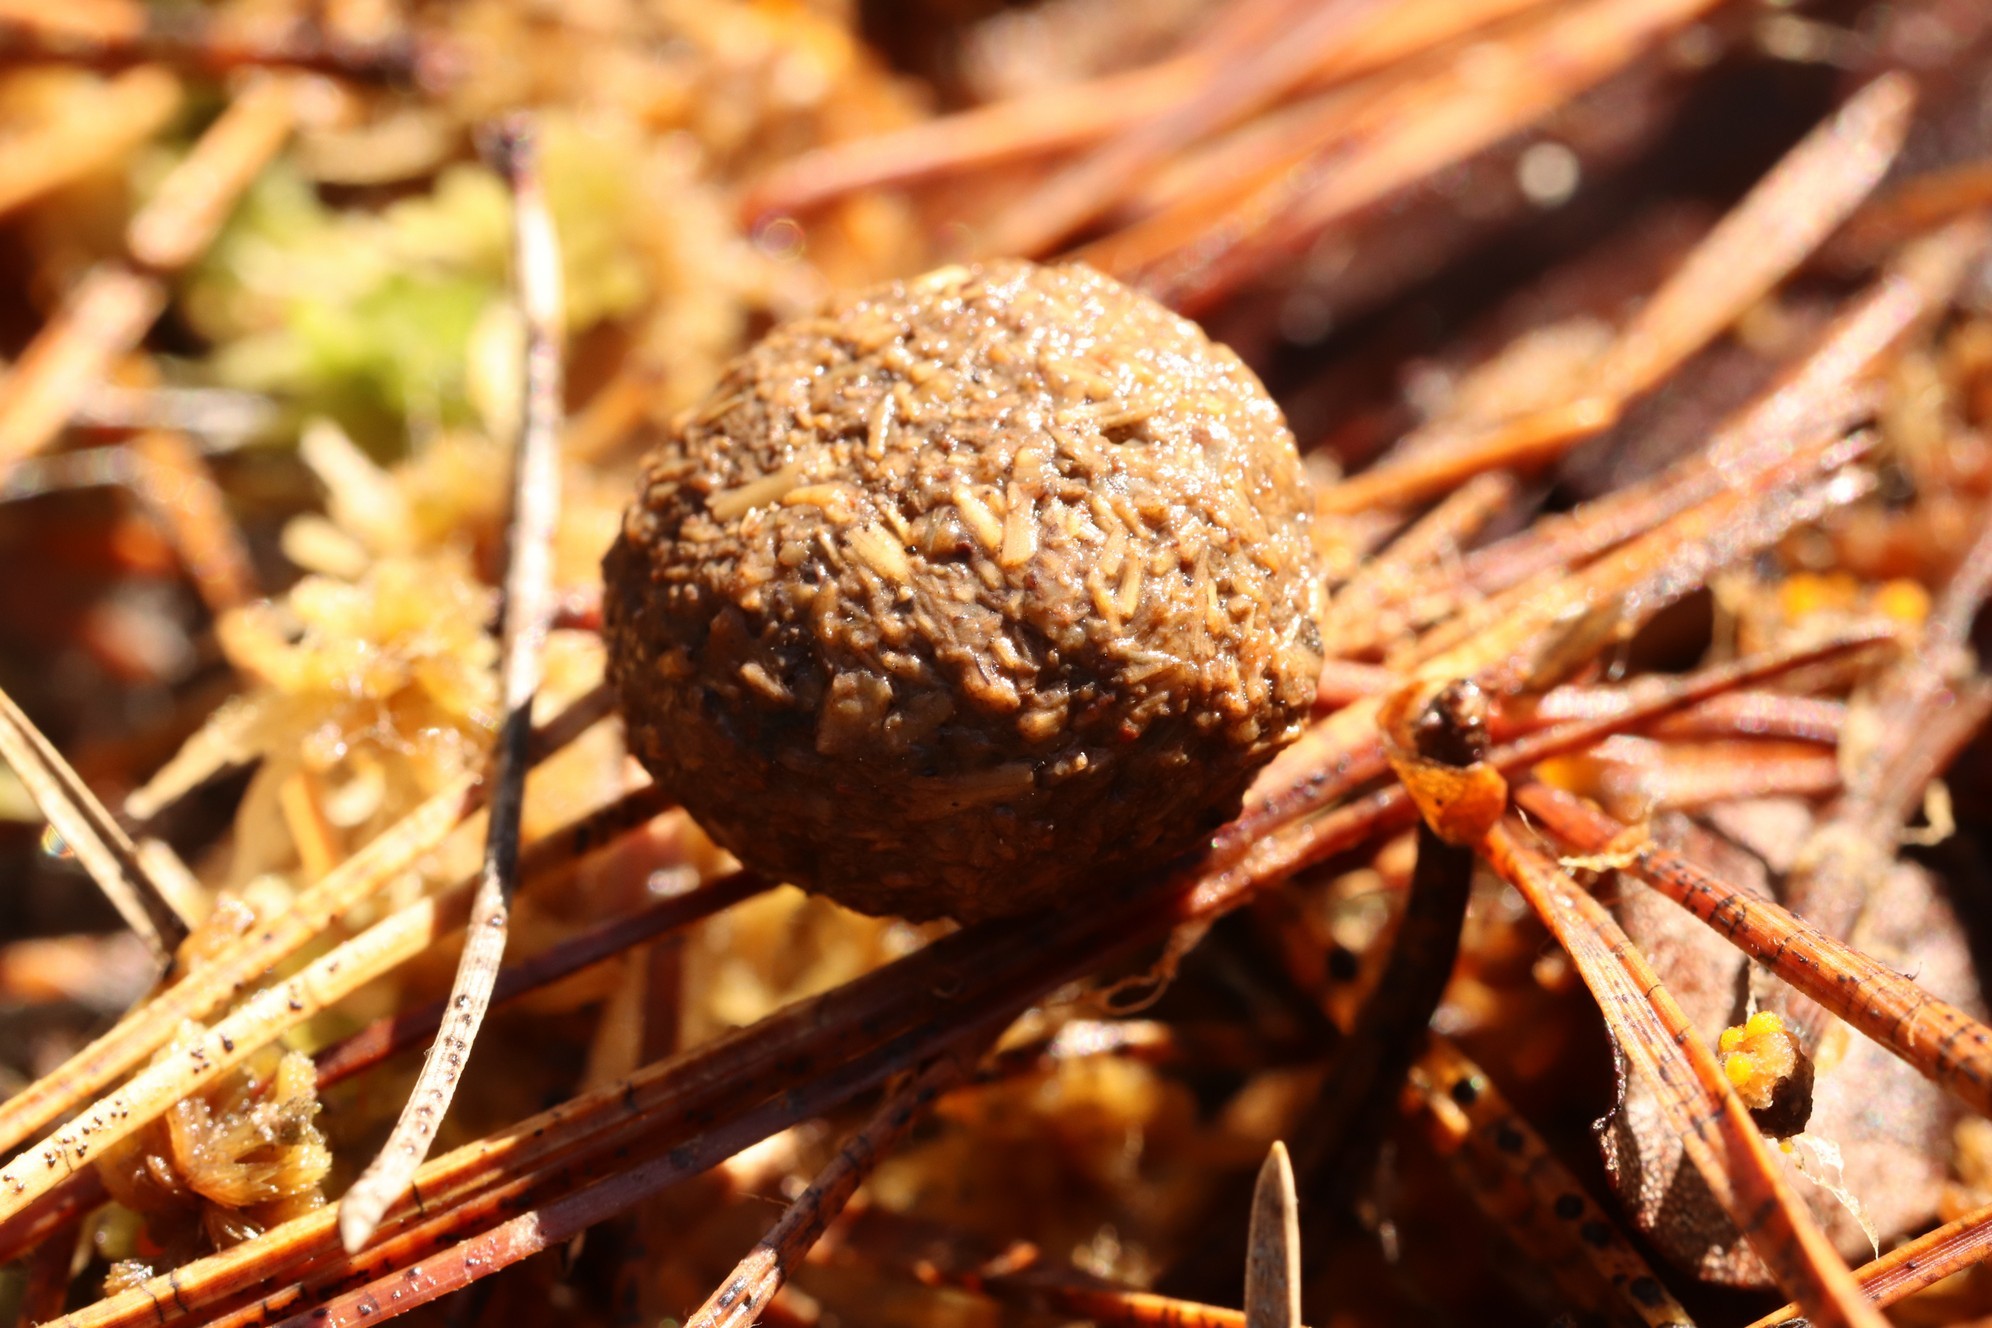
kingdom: Animalia
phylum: Chordata
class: Mammalia
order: Lagomorpha
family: Leporidae
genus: Lepus
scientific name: Lepus timidus
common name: Mountain hare
